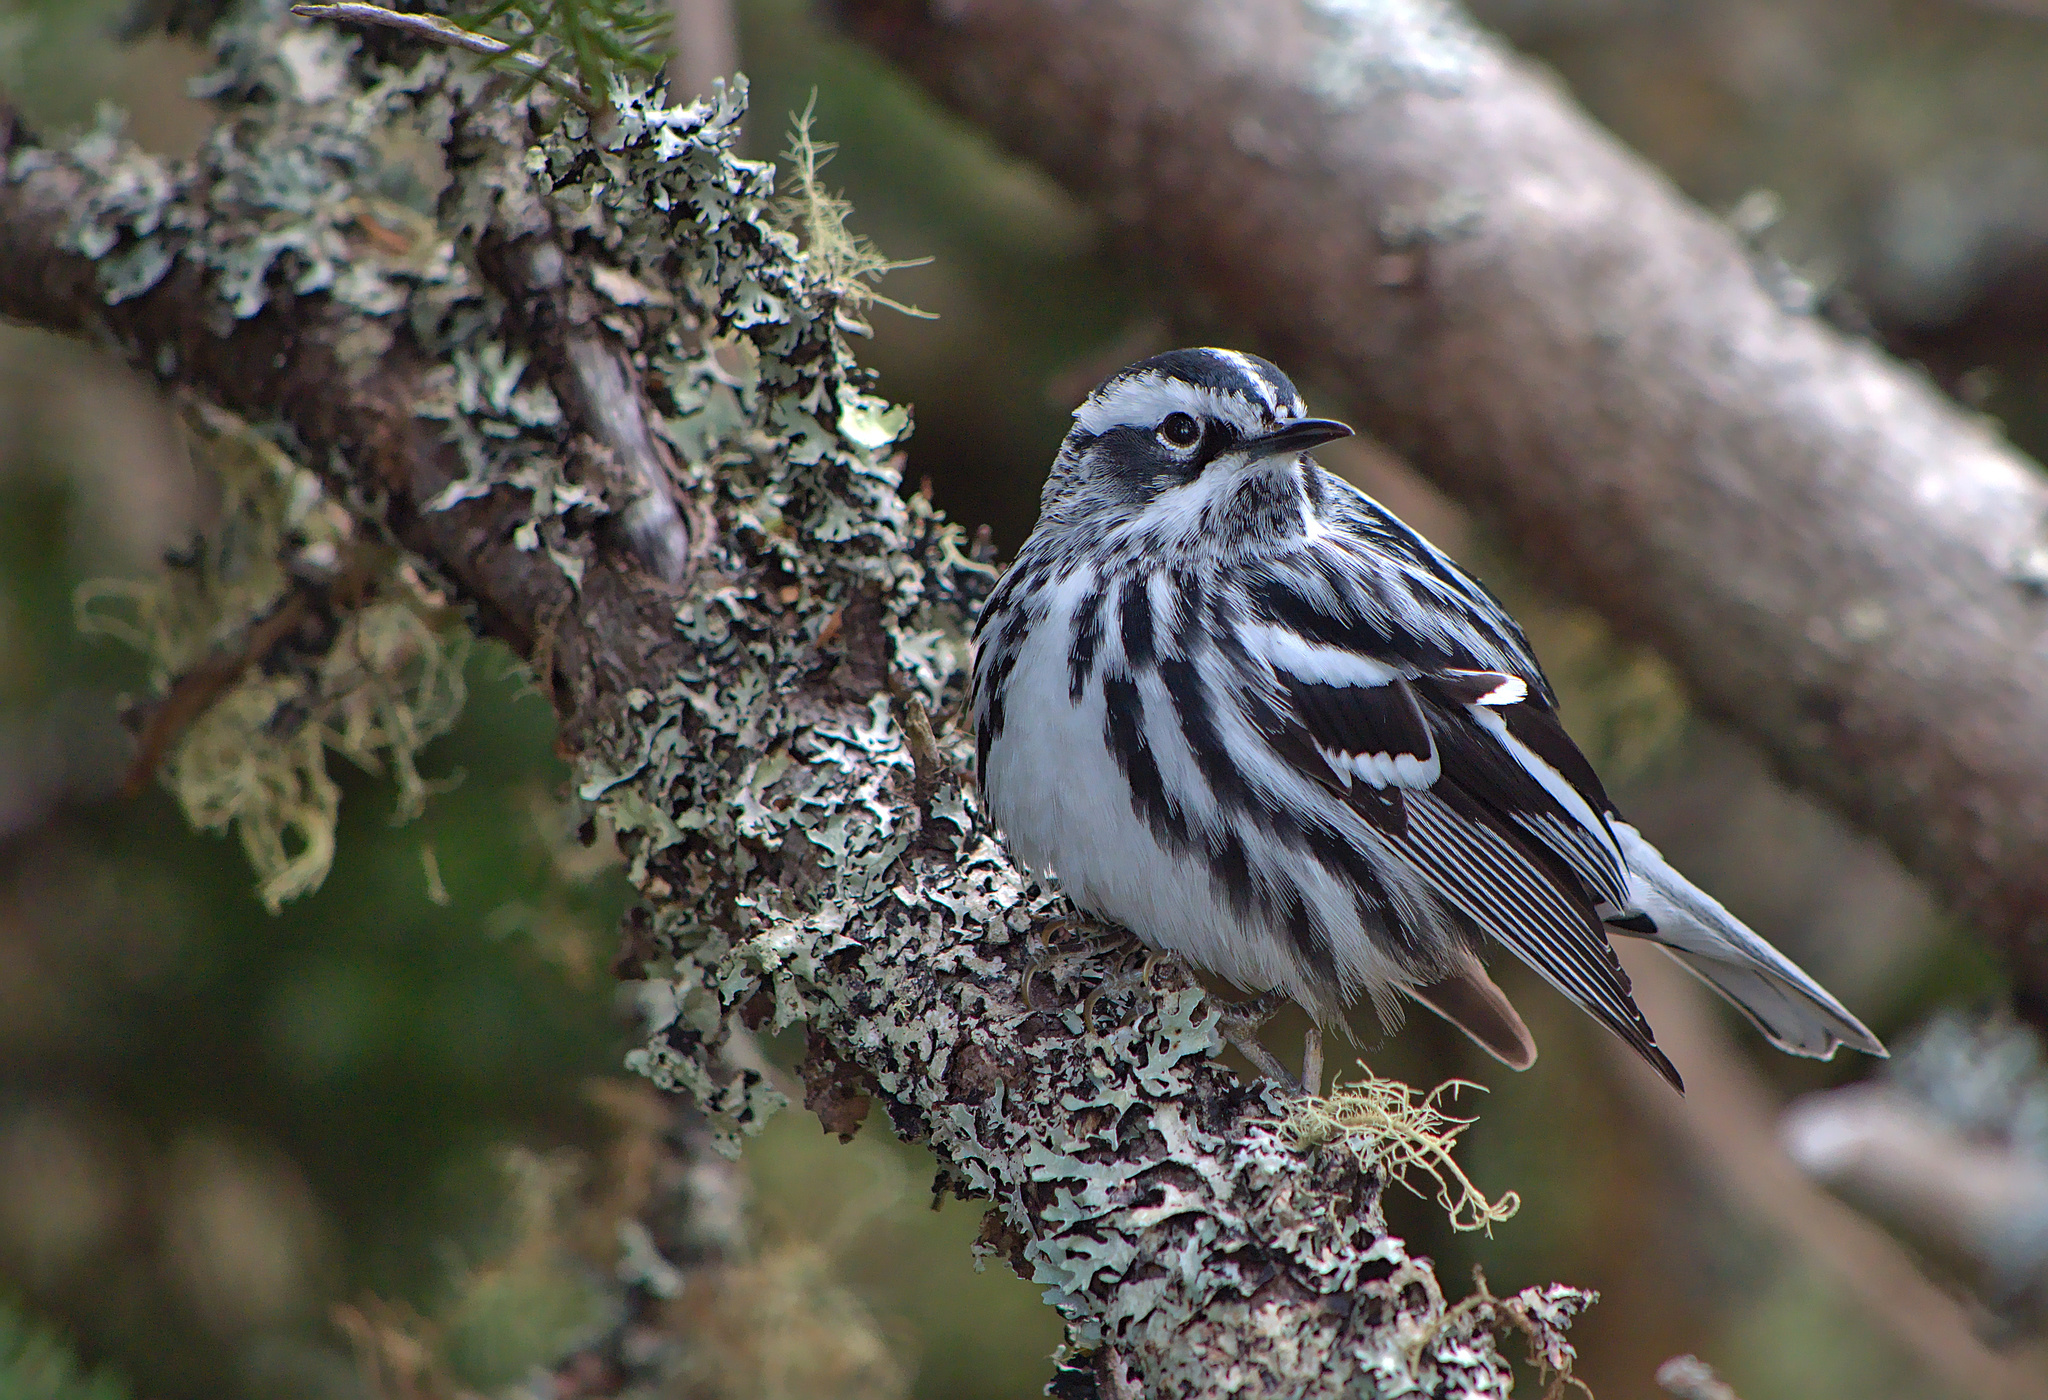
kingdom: Animalia
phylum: Chordata
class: Aves
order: Passeriformes
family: Parulidae
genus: Mniotilta
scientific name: Mniotilta varia
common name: Black-and-white warbler
